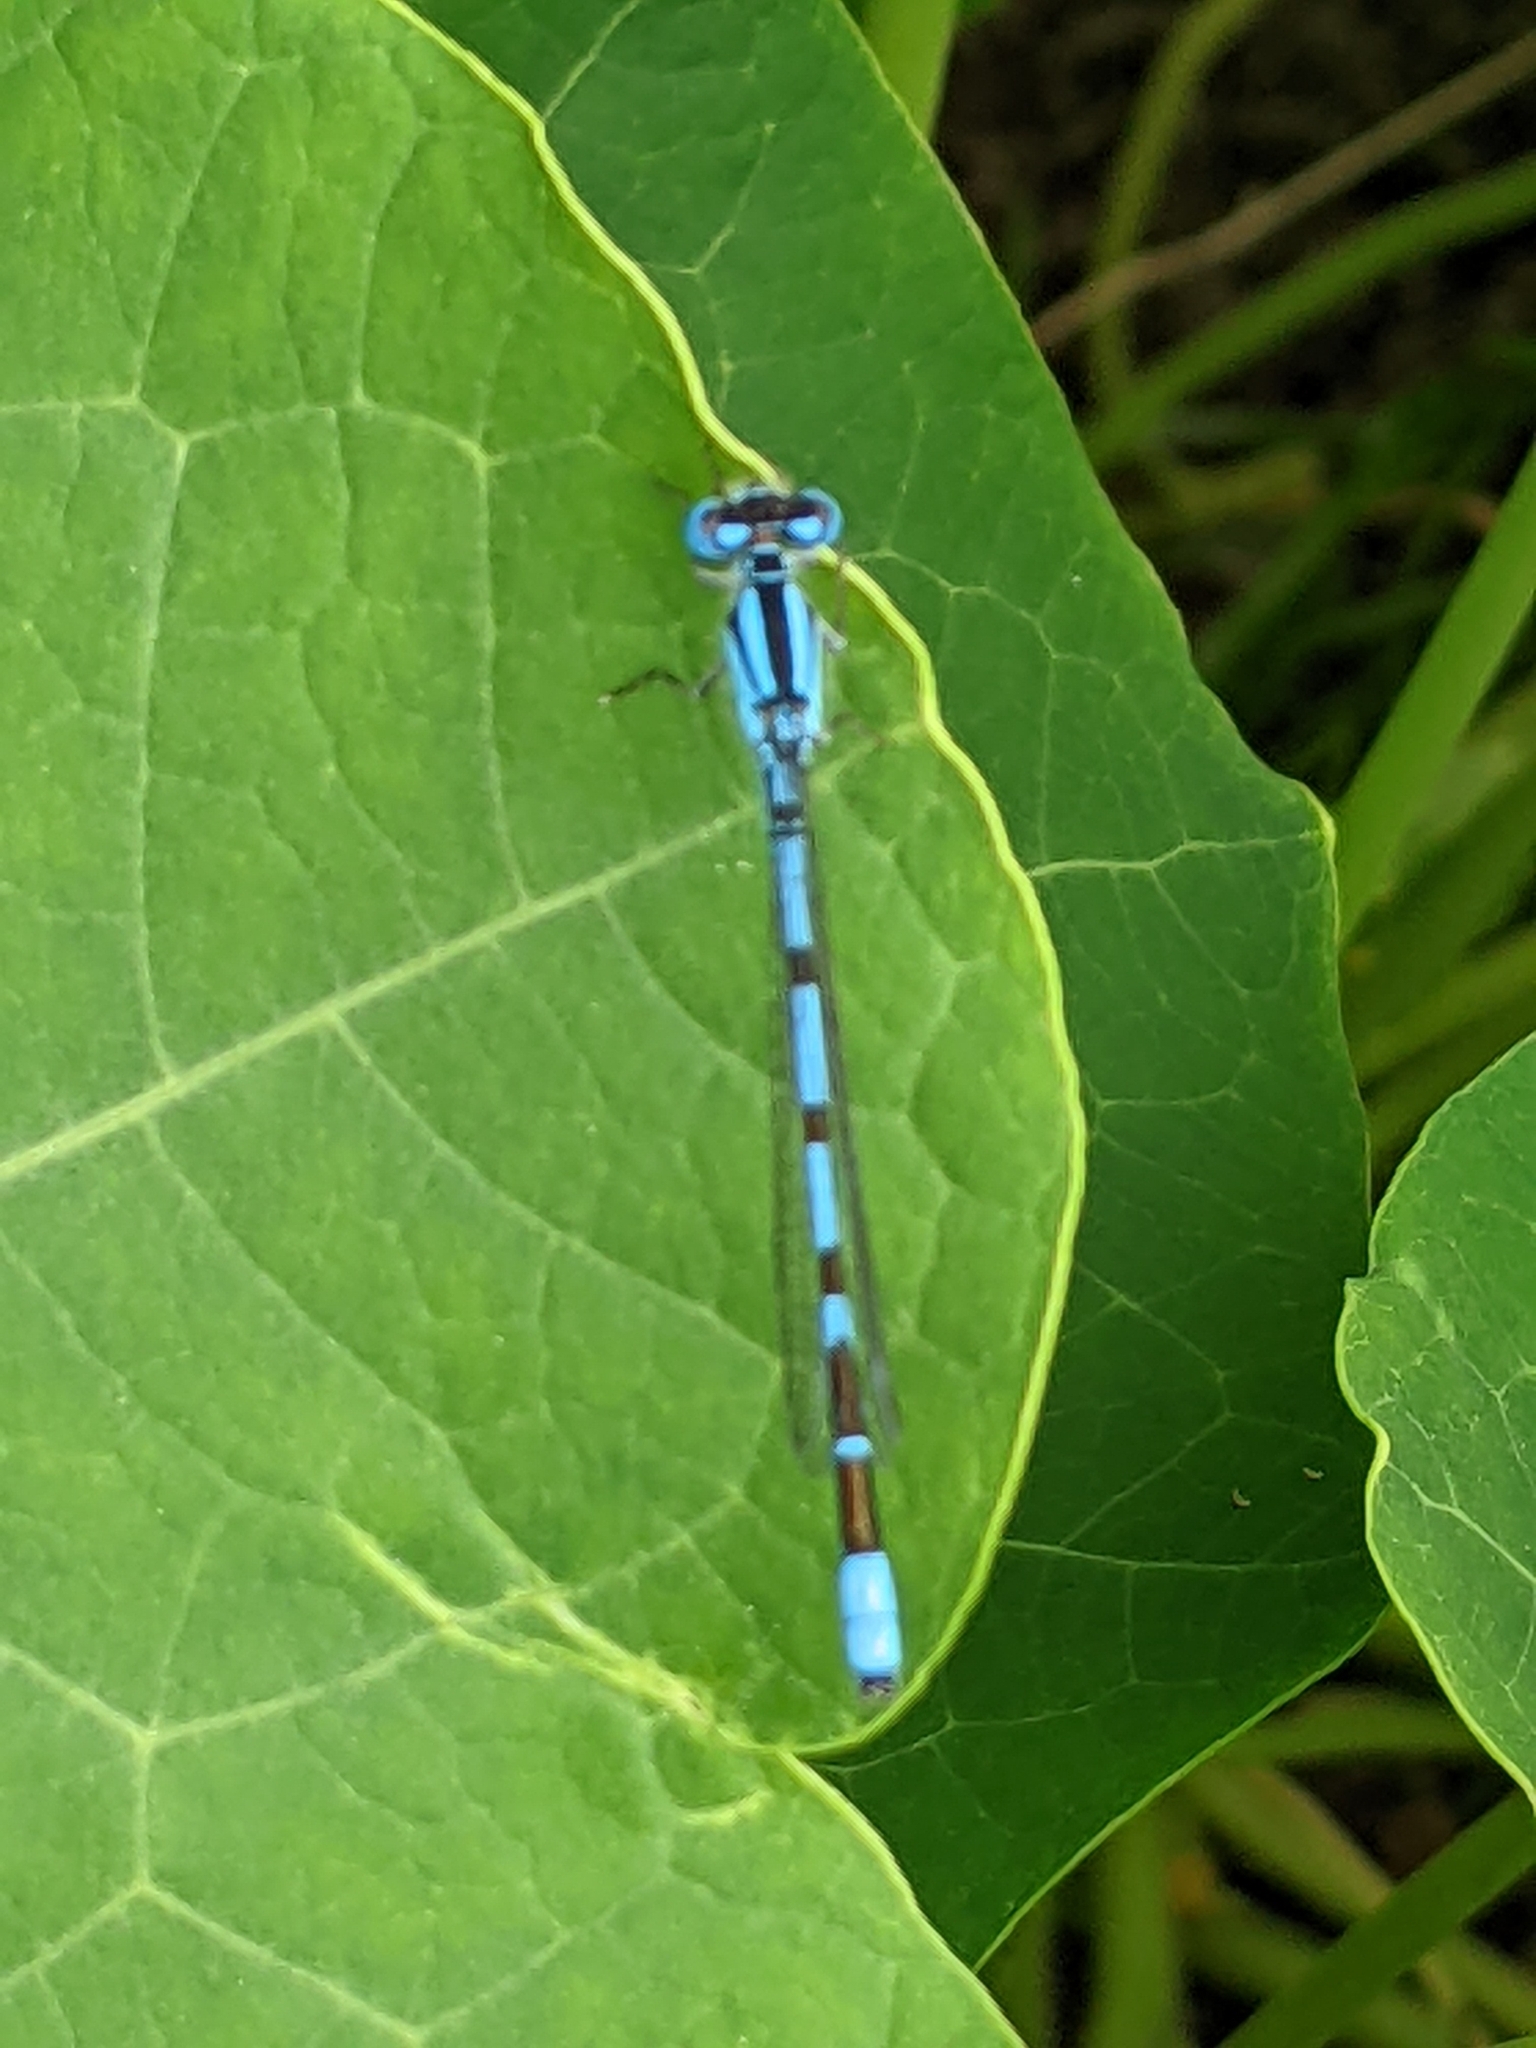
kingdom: Animalia
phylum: Arthropoda
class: Insecta
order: Odonata
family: Coenagrionidae
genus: Enallagma
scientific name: Enallagma cyathigerum
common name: Common blue damselfly
